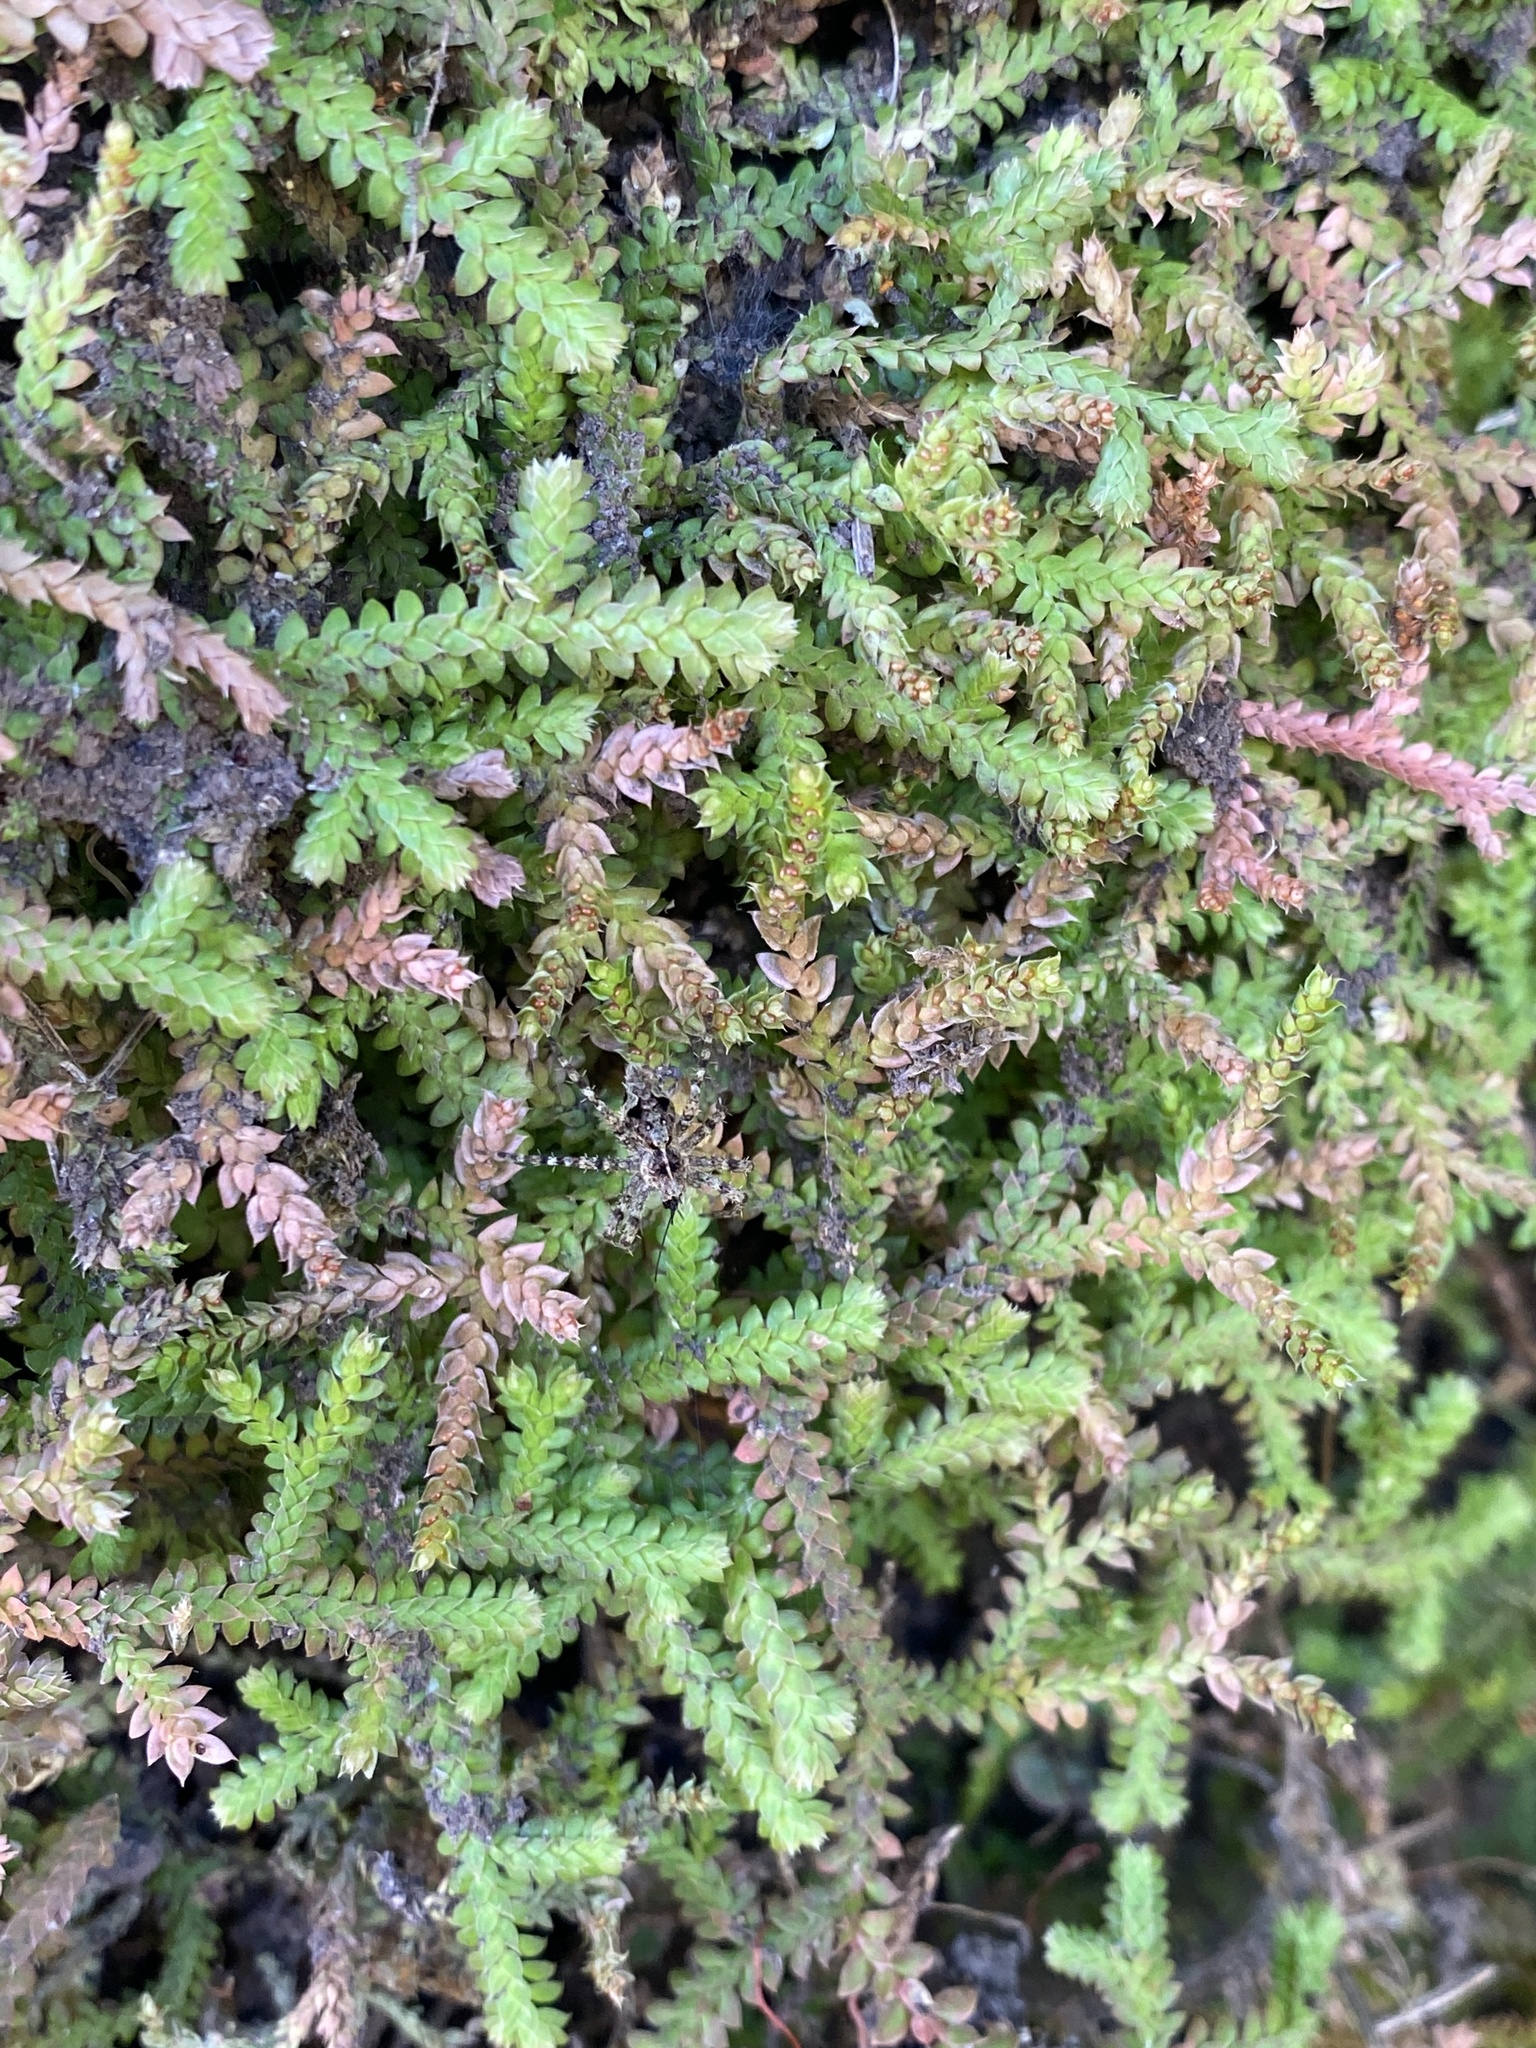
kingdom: Plantae
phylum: Tracheophyta
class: Lycopodiopsida
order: Selaginellales
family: Selaginellaceae
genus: Selaginella
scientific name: Selaginella denticulata
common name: Toothed-leaved clubmoss
